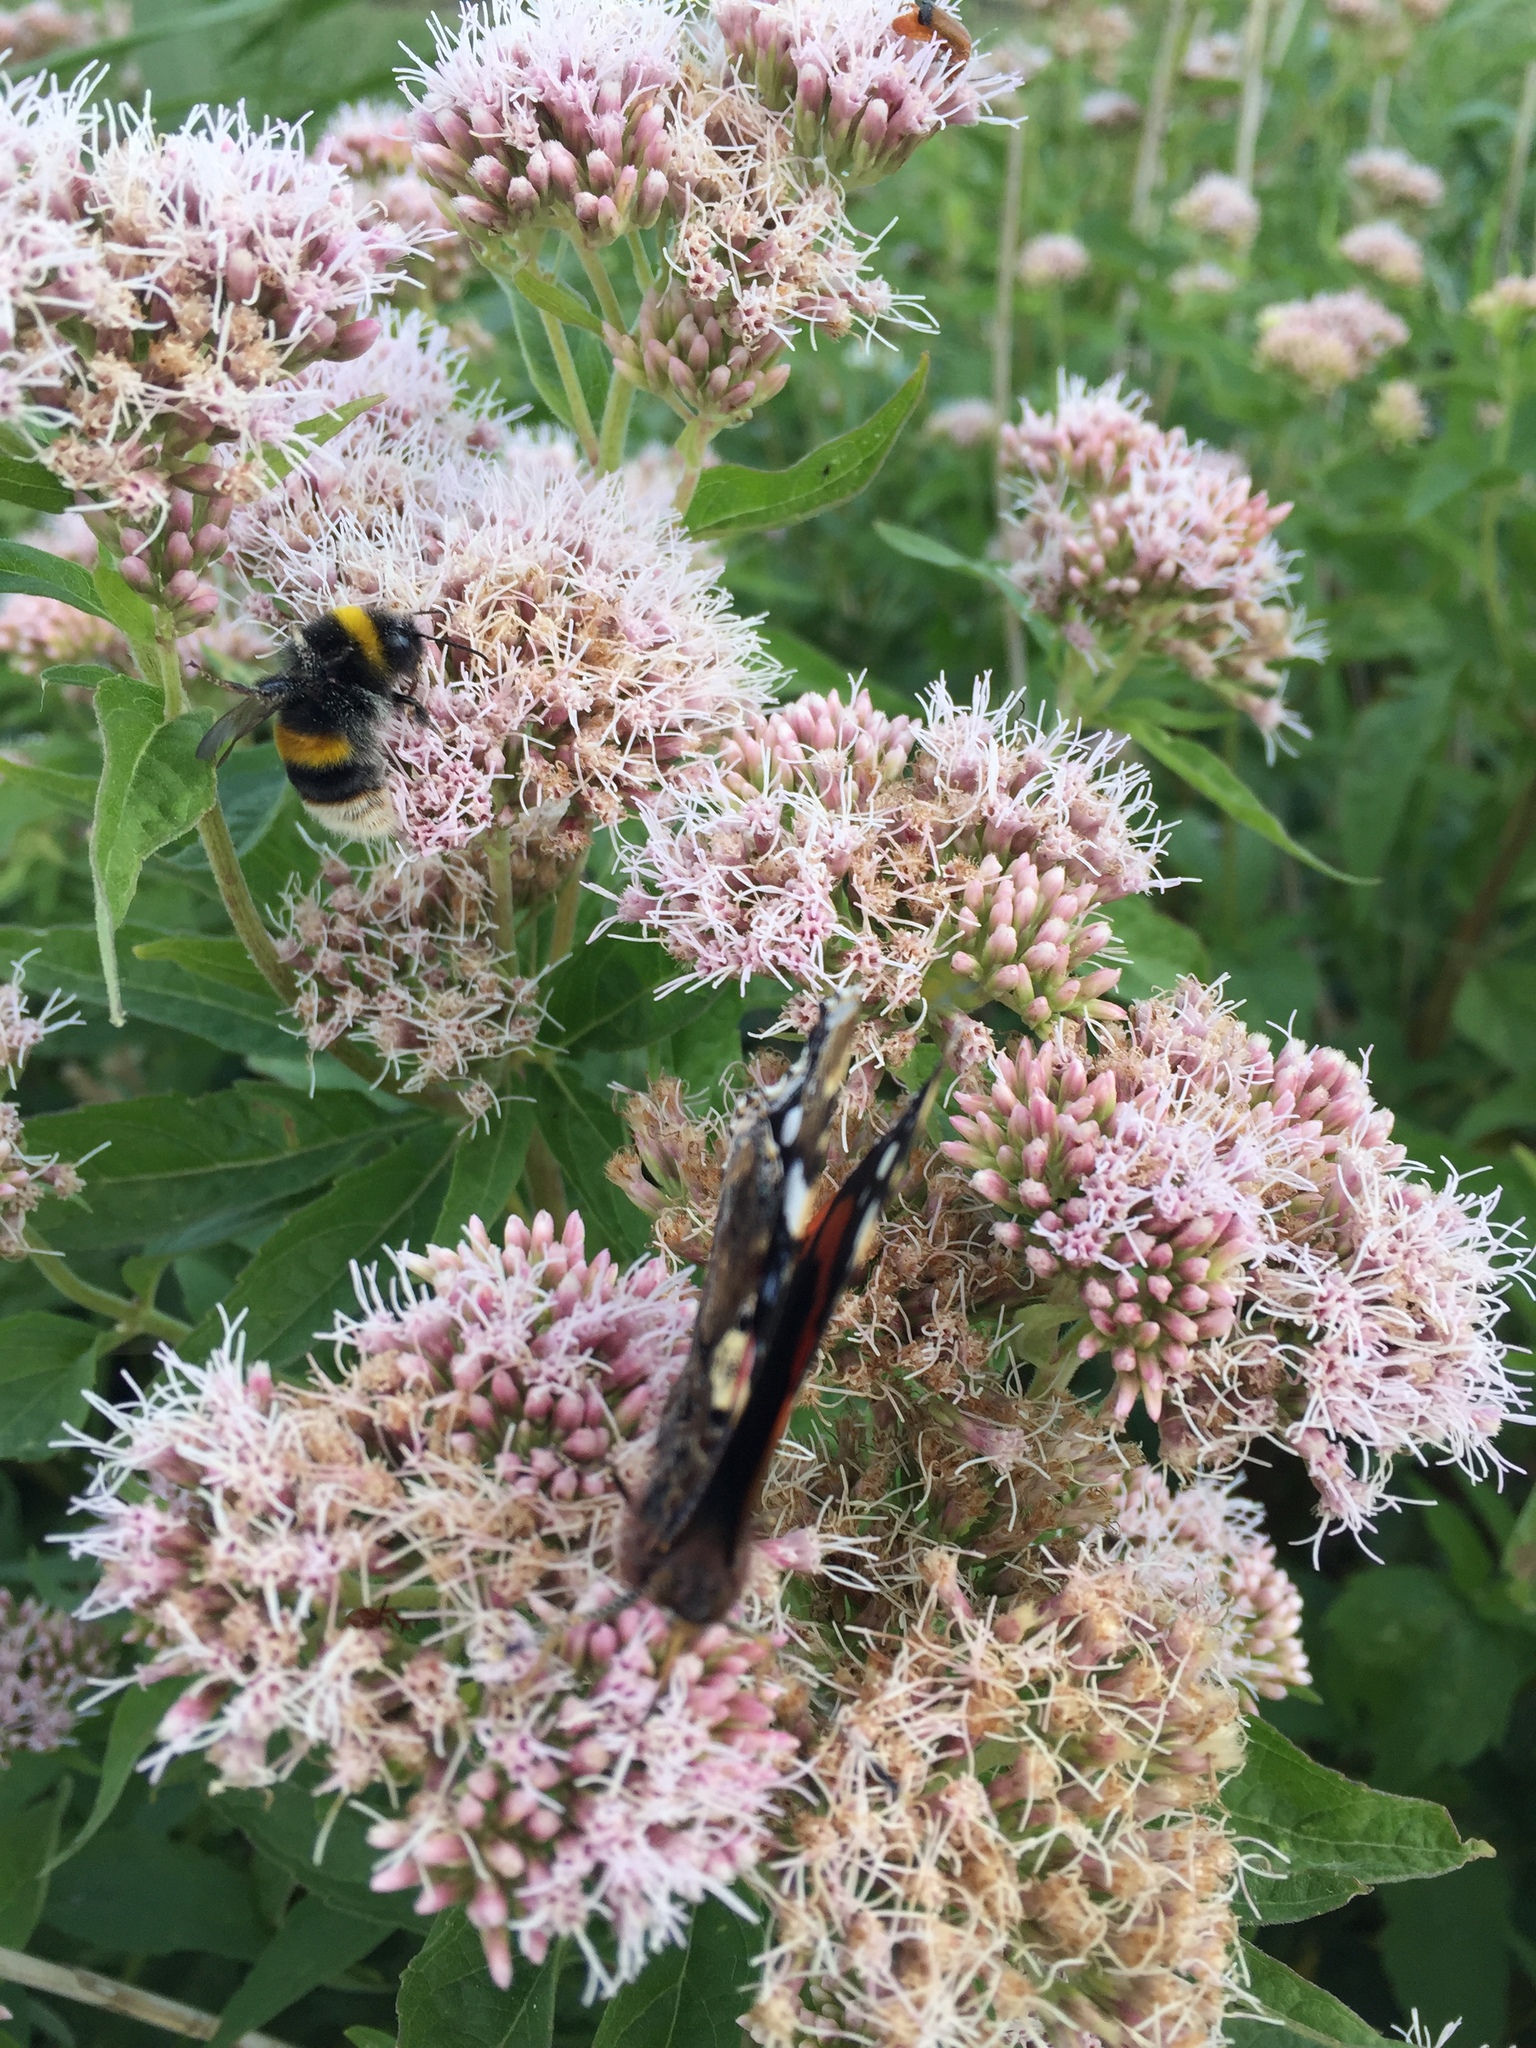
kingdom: Animalia
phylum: Arthropoda
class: Insecta
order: Lepidoptera
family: Nymphalidae
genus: Aglais
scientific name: Aglais io
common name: Peacock
